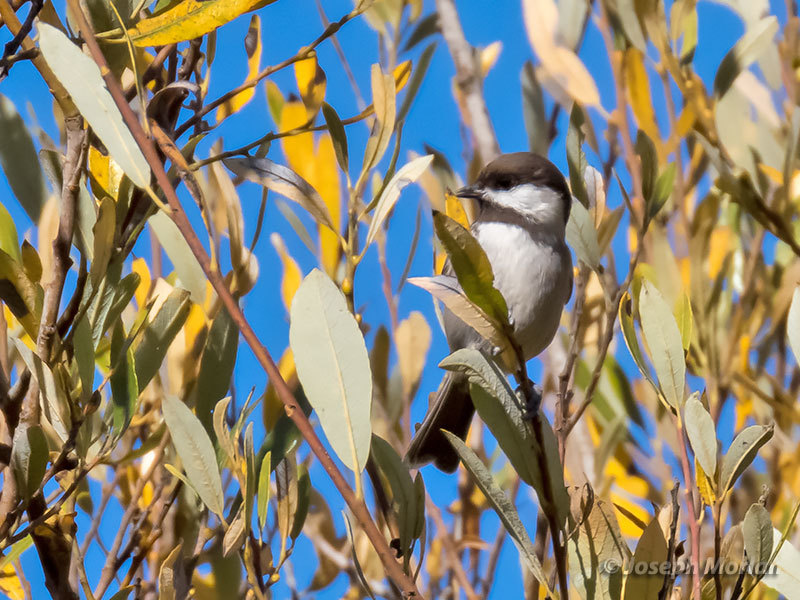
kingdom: Animalia
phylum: Chordata
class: Aves
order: Passeriformes
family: Paridae
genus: Poecile
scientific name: Poecile rufescens
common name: Chestnut-backed chickadee
